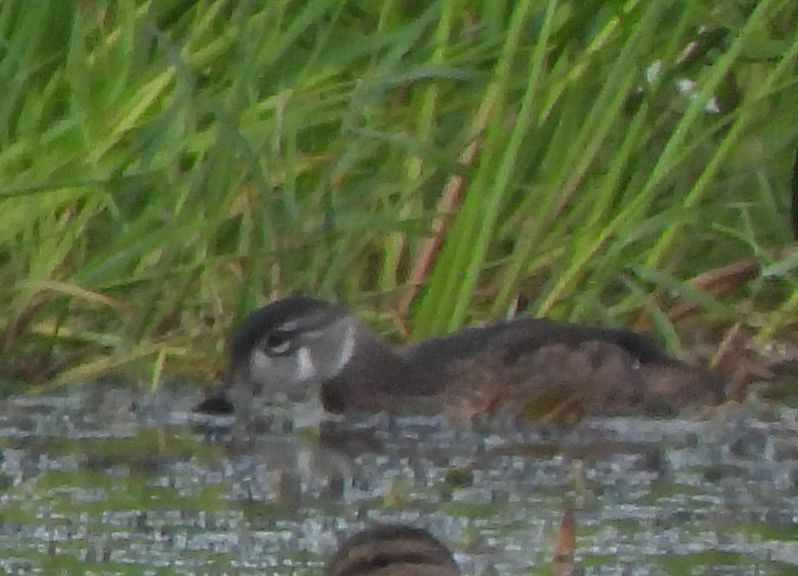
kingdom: Animalia
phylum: Chordata
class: Aves
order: Anseriformes
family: Anatidae
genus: Aix
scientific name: Aix sponsa
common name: Wood duck
